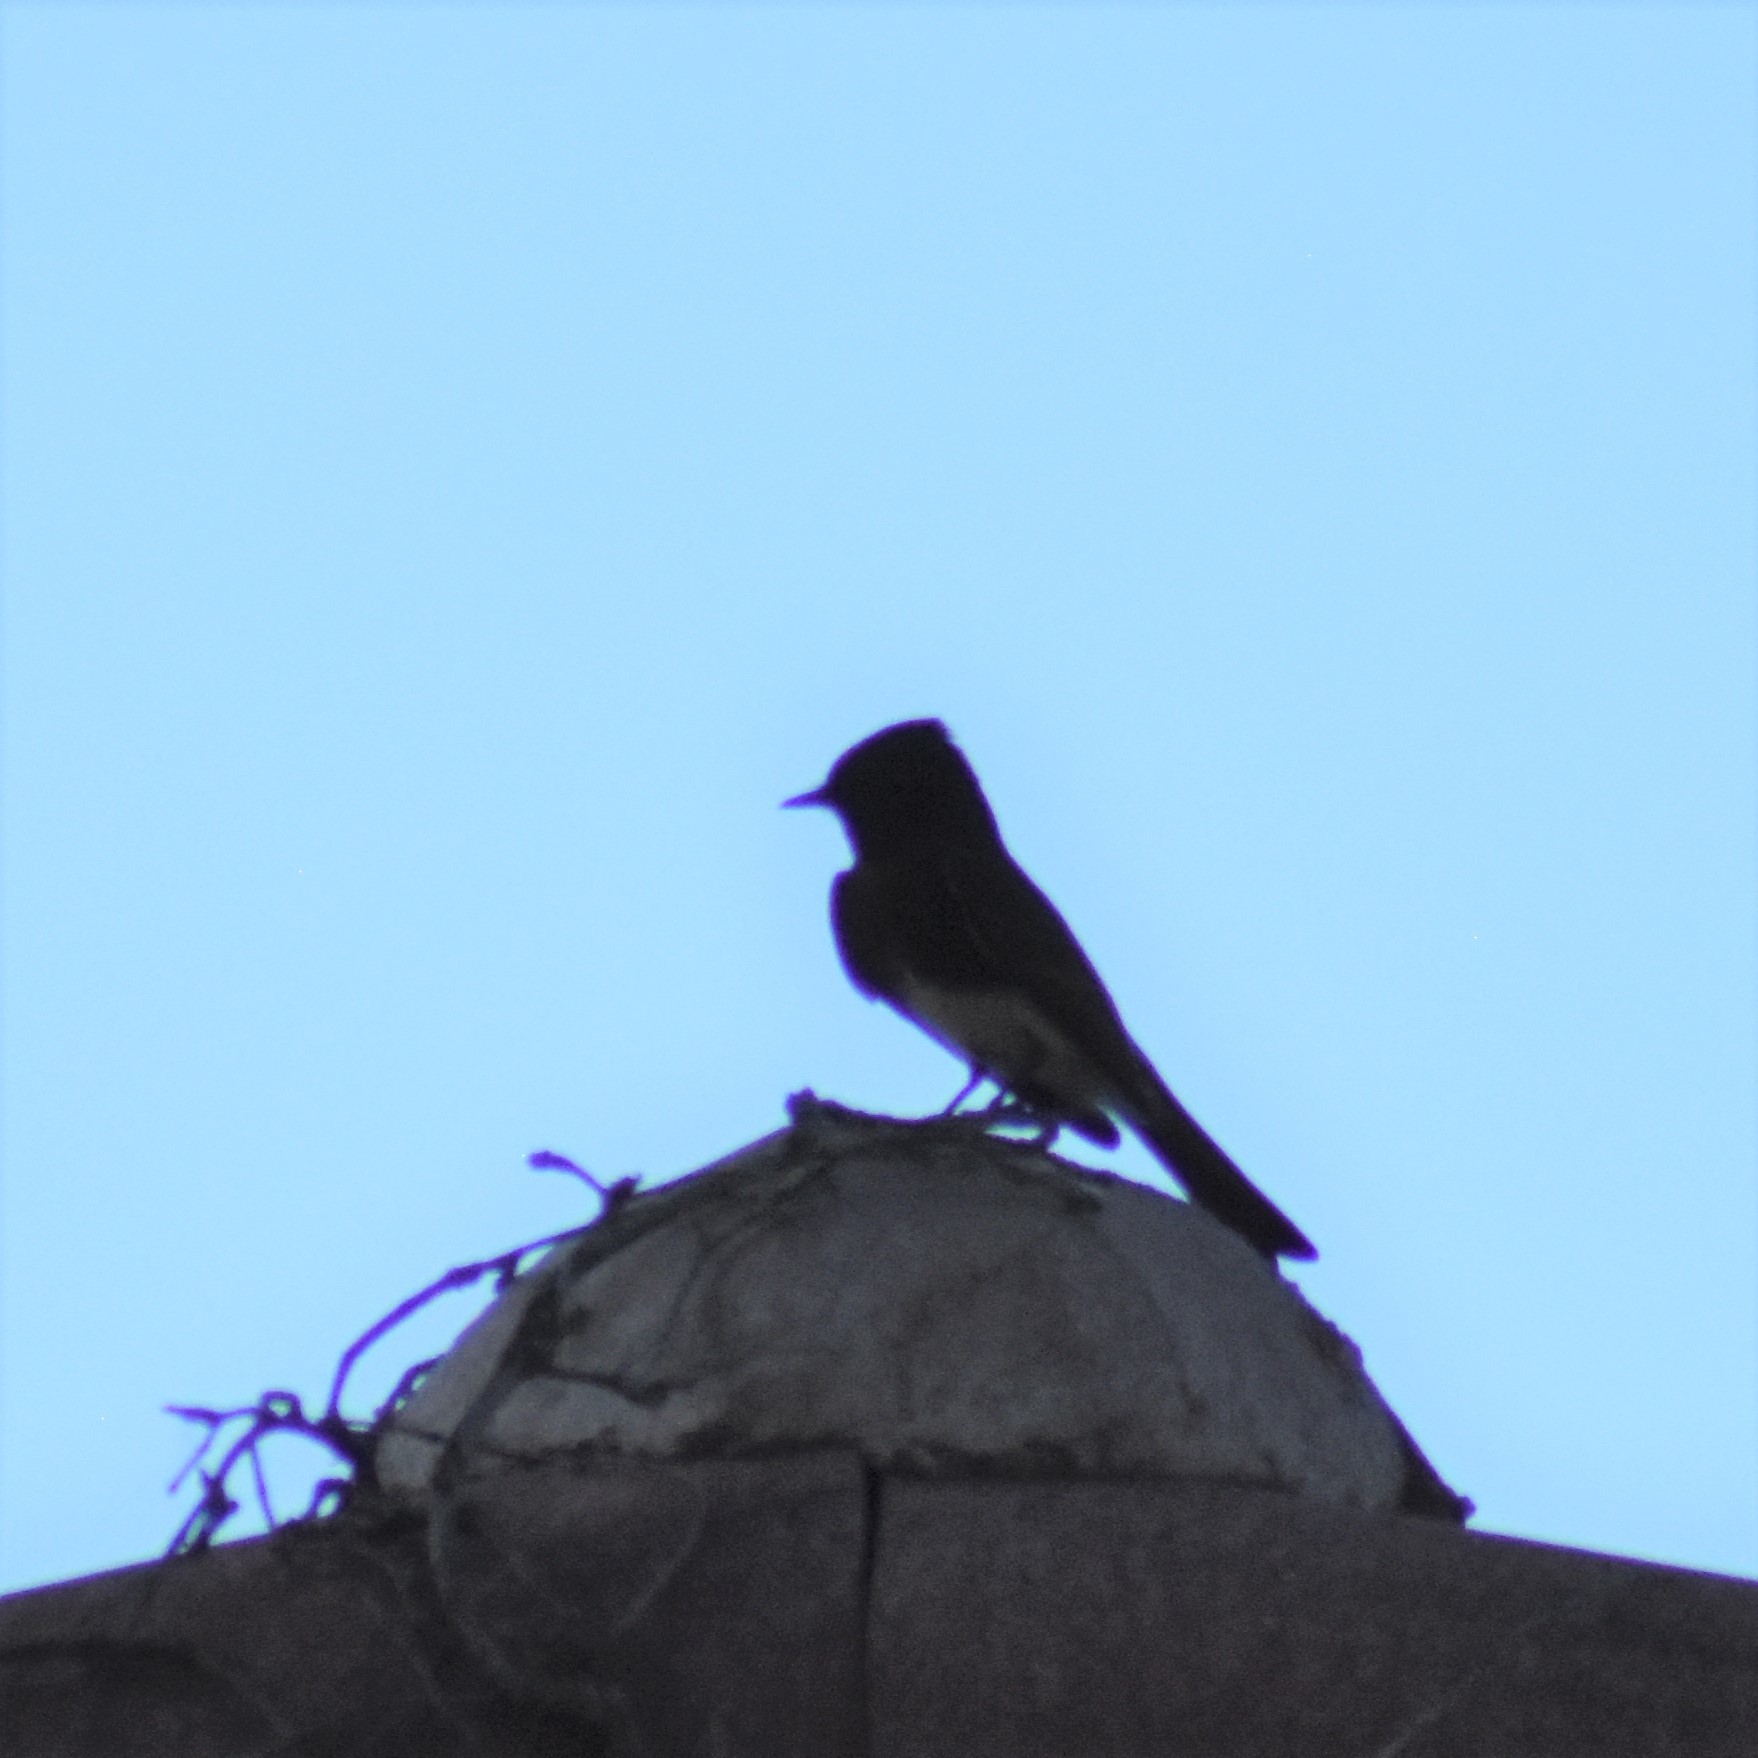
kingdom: Animalia
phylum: Chordata
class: Aves
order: Passeriformes
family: Tyrannidae
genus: Sayornis
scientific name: Sayornis nigricans
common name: Black phoebe
